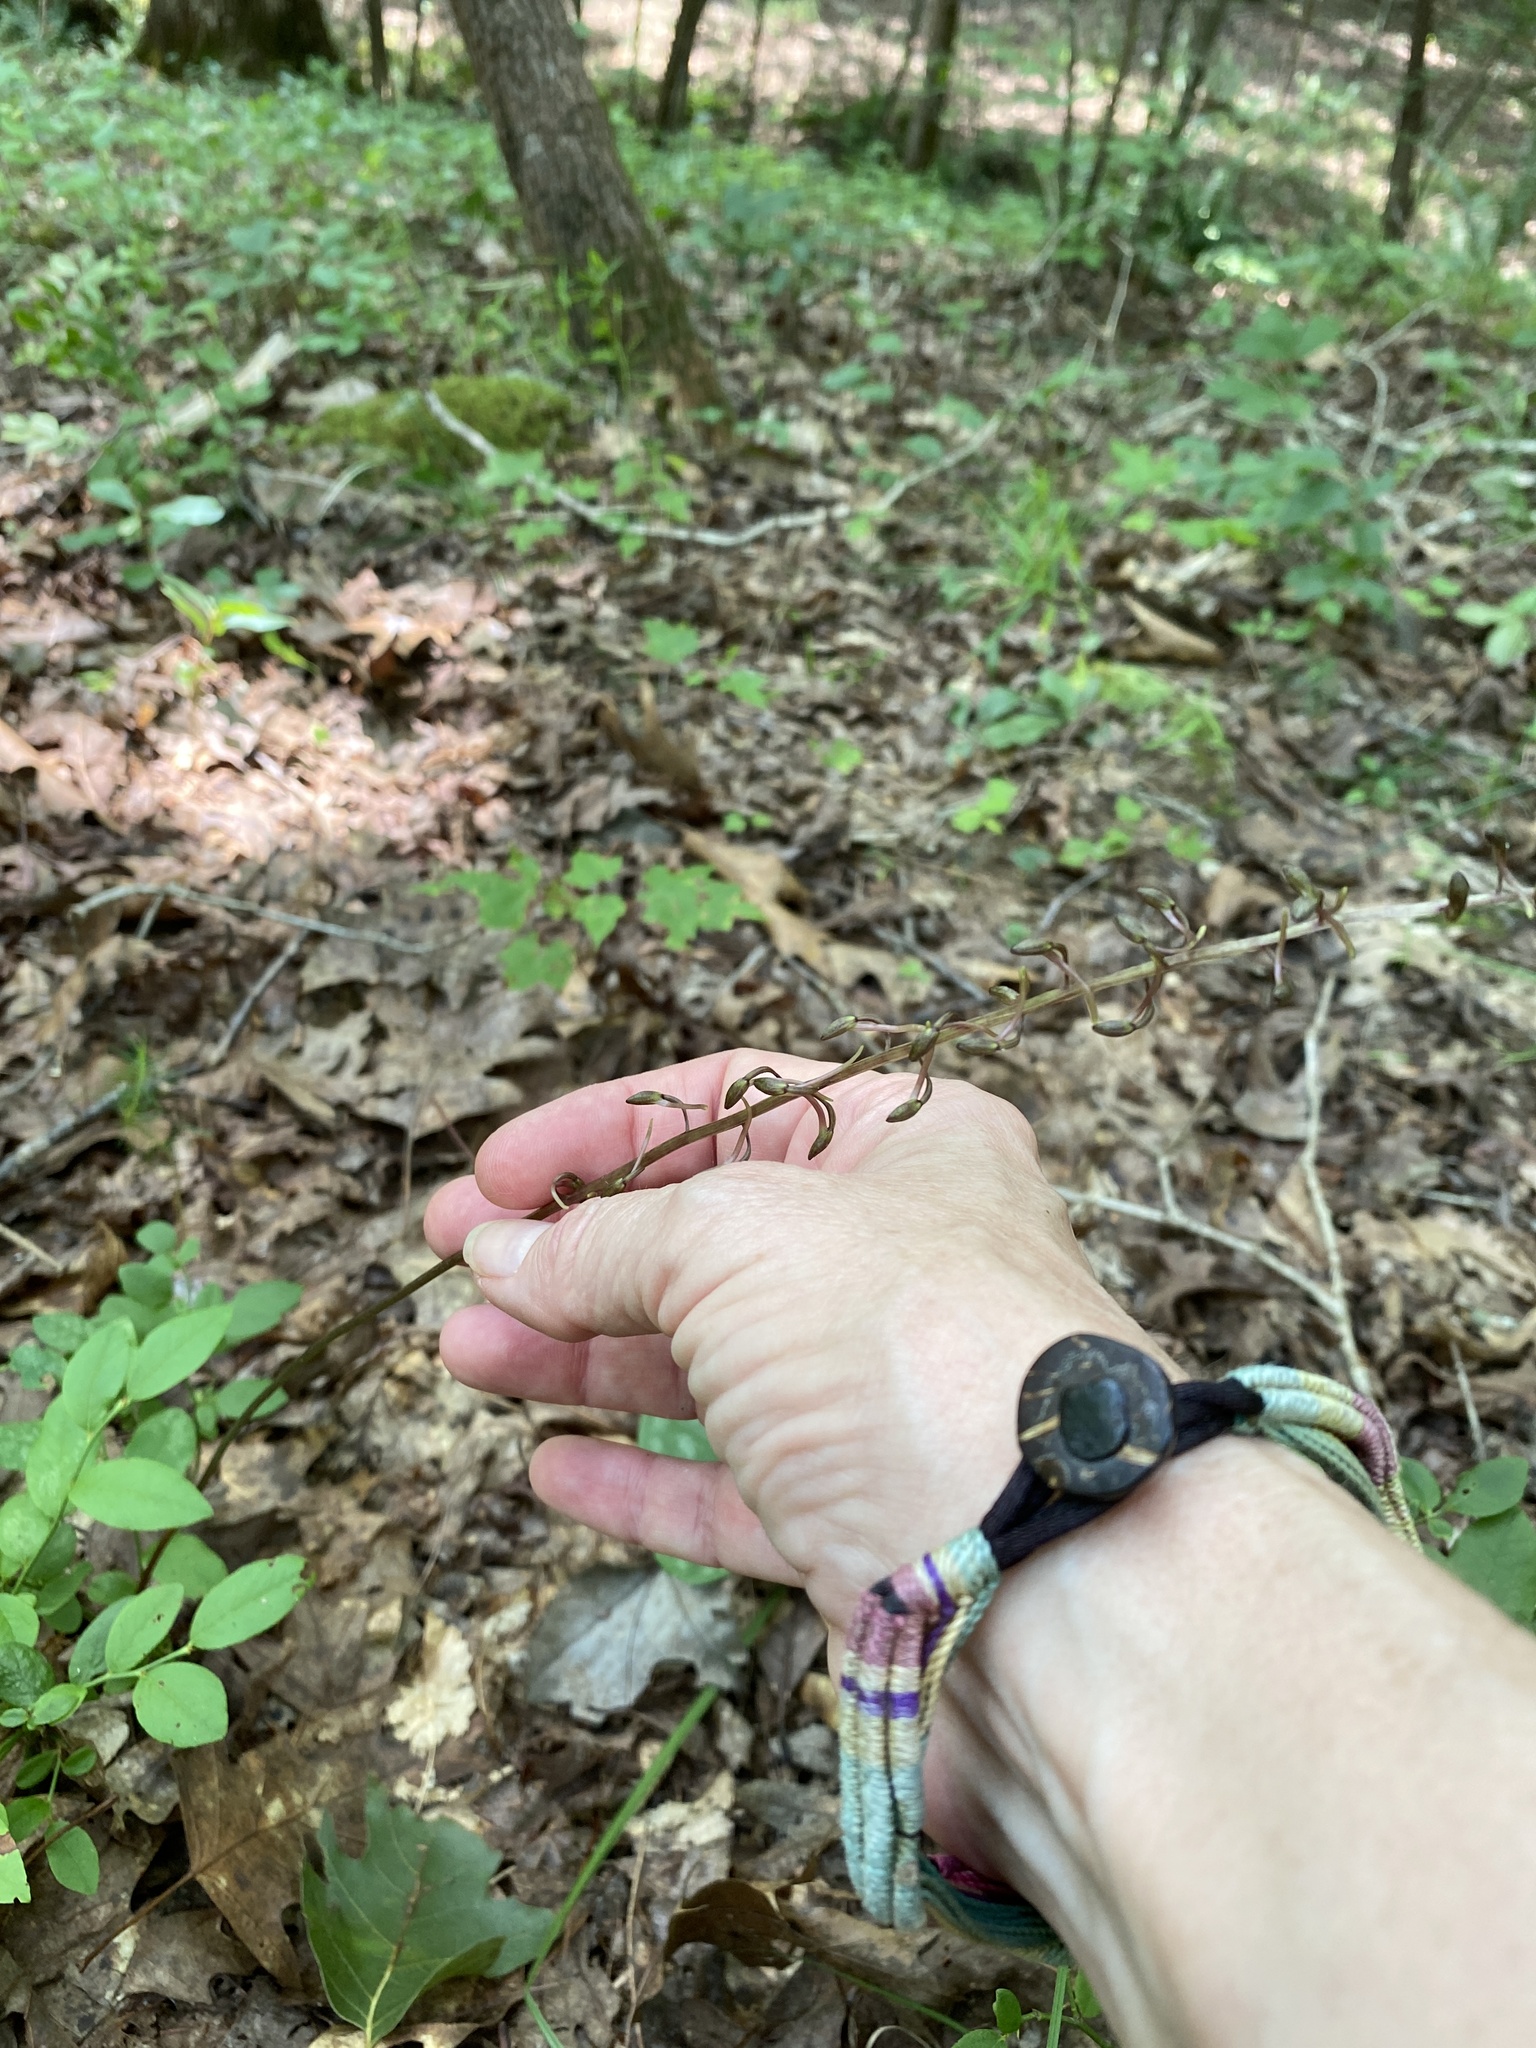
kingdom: Plantae
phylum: Tracheophyta
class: Liliopsida
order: Asparagales
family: Orchidaceae
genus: Tipularia
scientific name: Tipularia discolor
